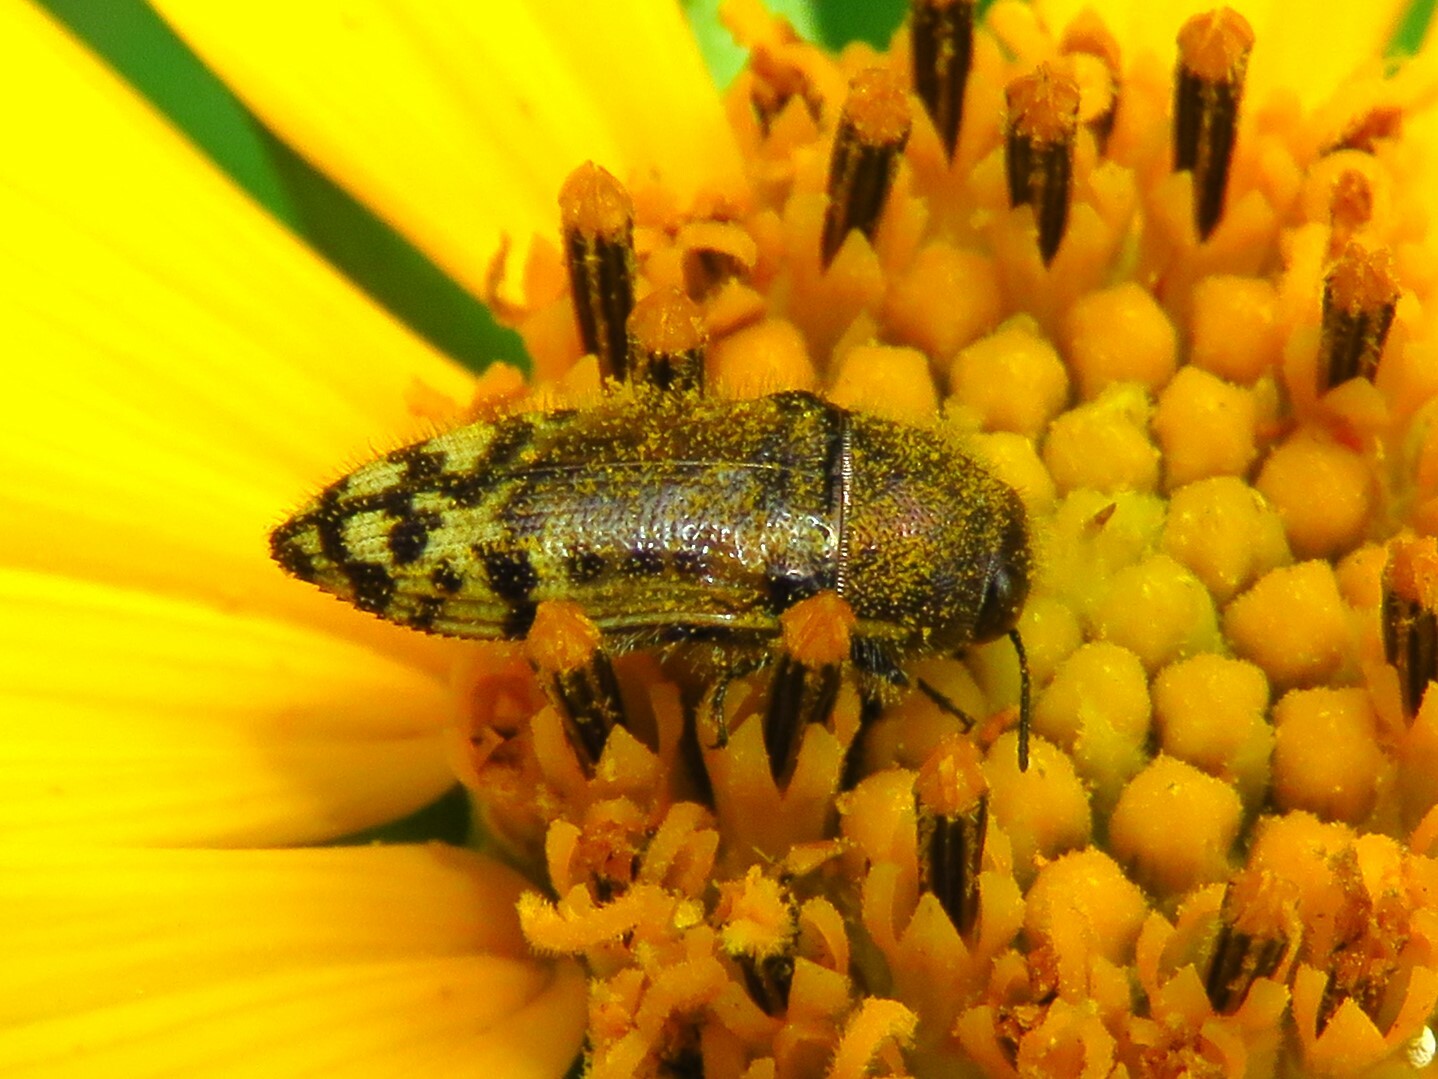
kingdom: Animalia
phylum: Arthropoda
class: Insecta
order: Coleoptera
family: Buprestidae
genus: Acmaeodera
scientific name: Acmaeodera mixta
